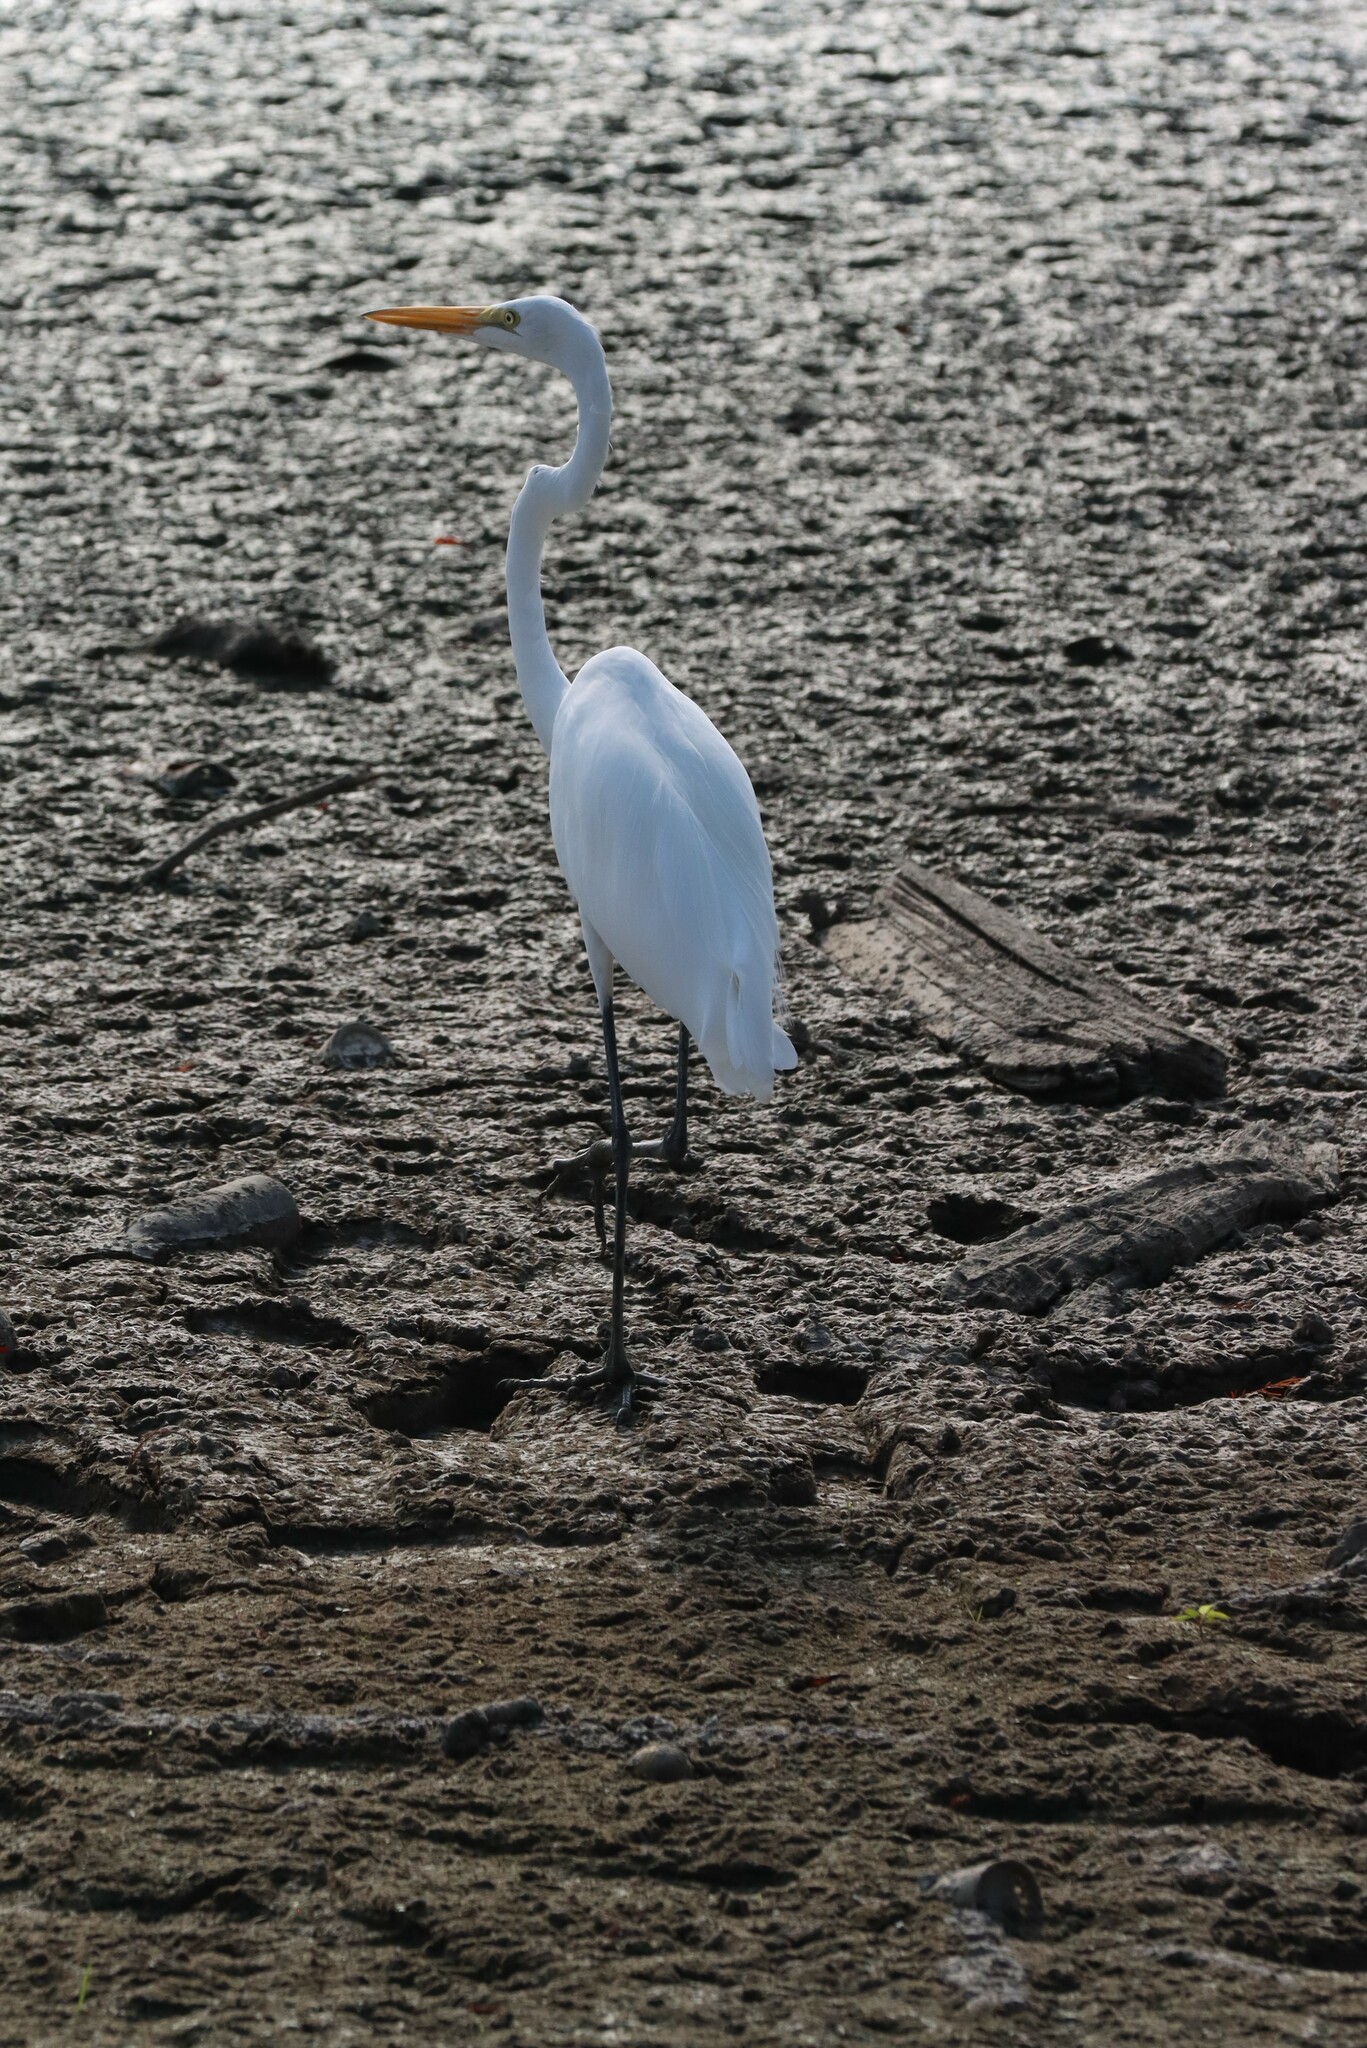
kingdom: Animalia
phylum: Chordata
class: Aves
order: Pelecaniformes
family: Ardeidae
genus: Ardea
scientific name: Ardea alba
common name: Great egret
